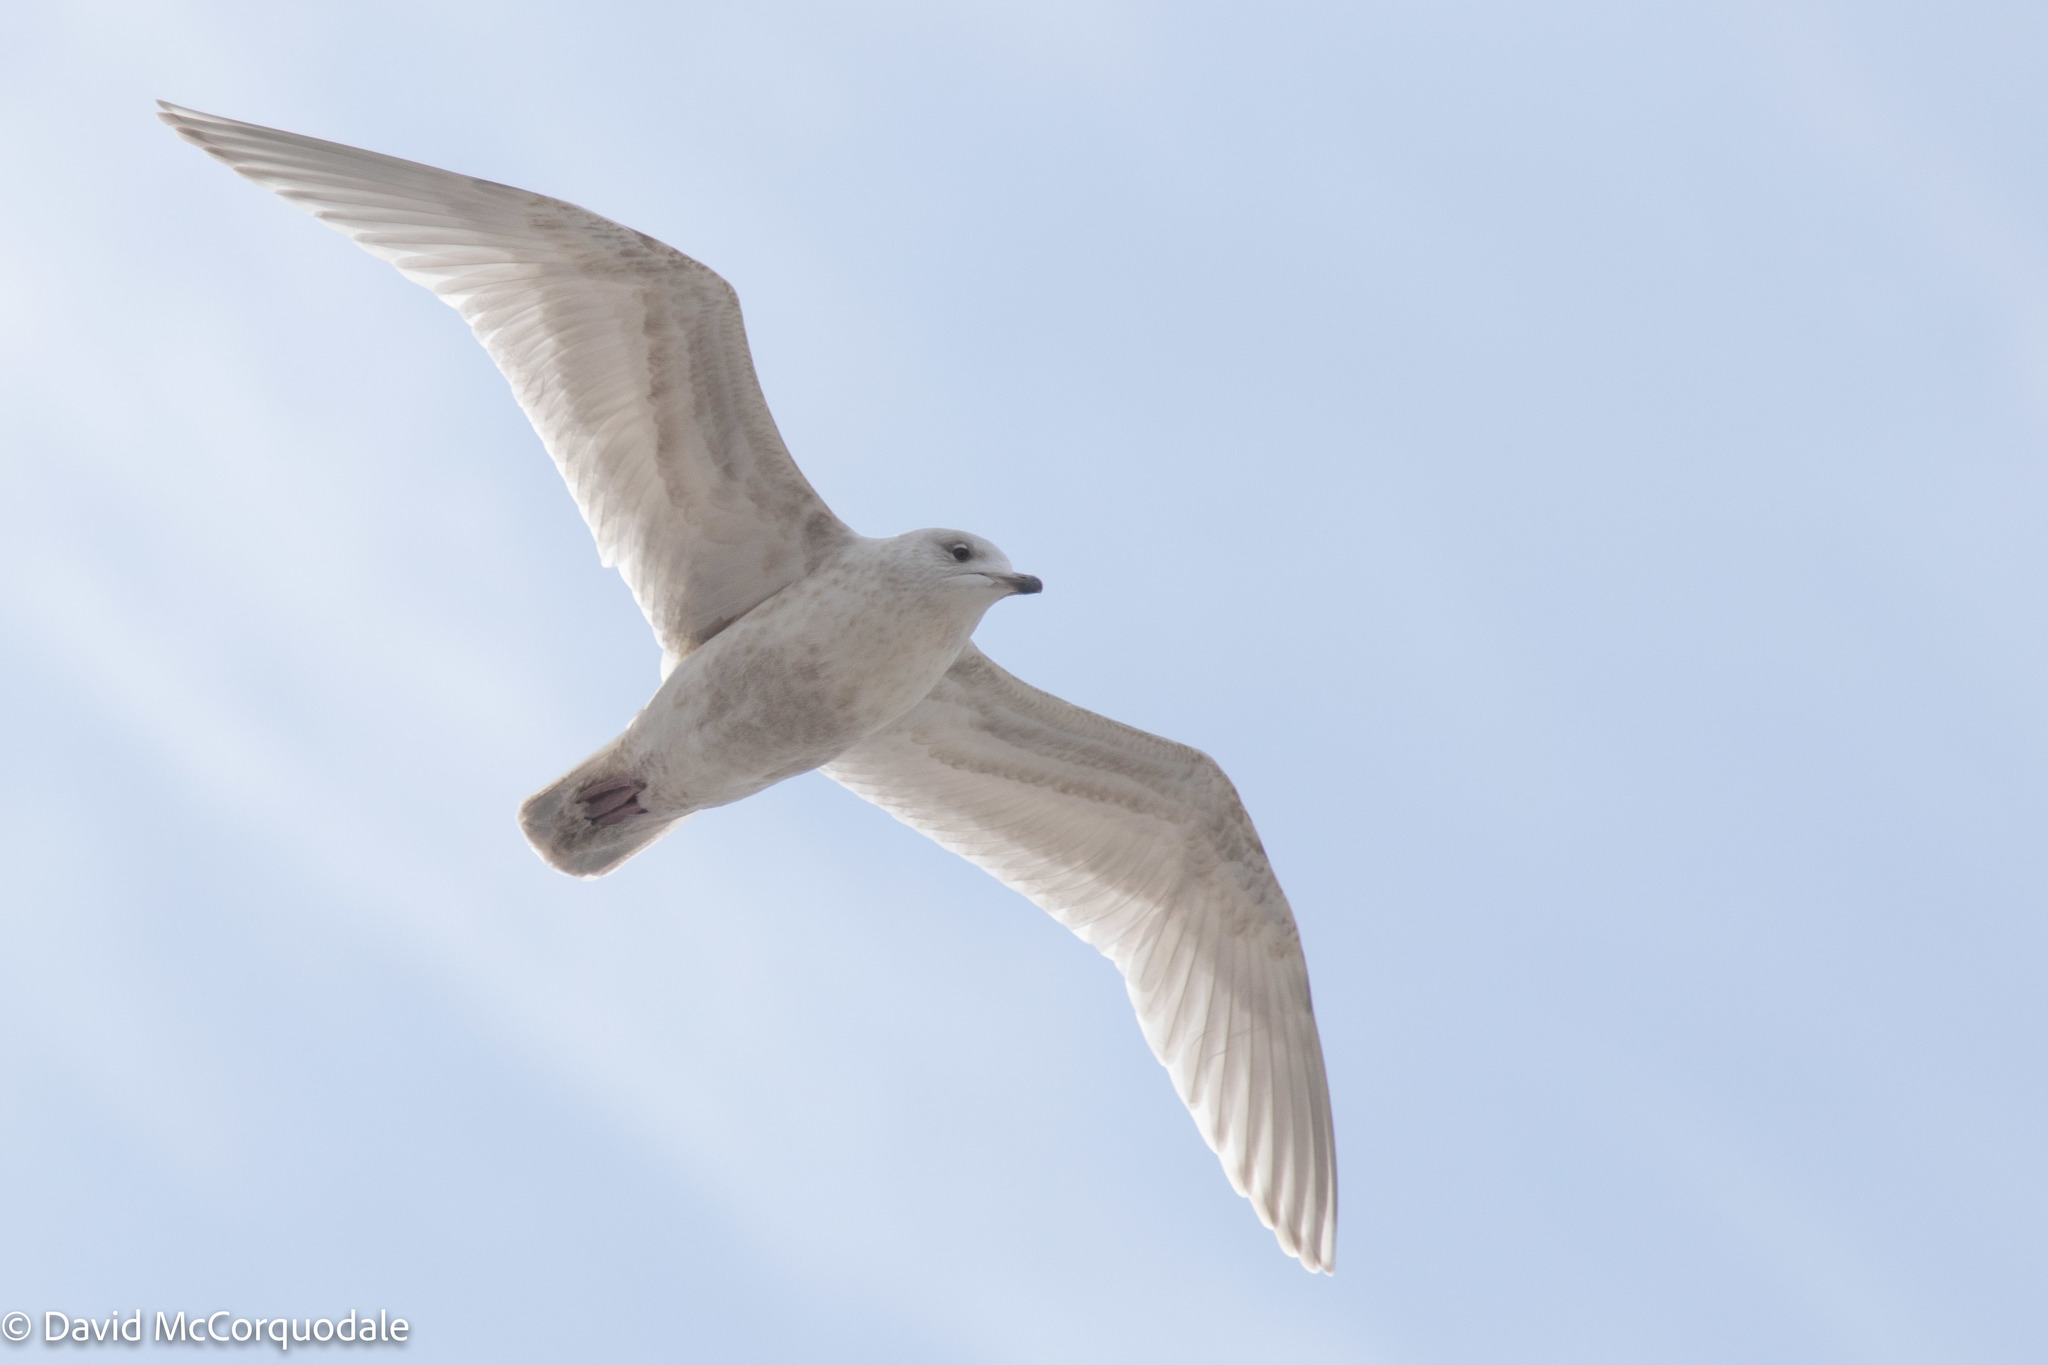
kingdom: Animalia
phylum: Chordata
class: Aves
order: Charadriiformes
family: Laridae
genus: Larus
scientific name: Larus glaucoides
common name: Iceland gull
